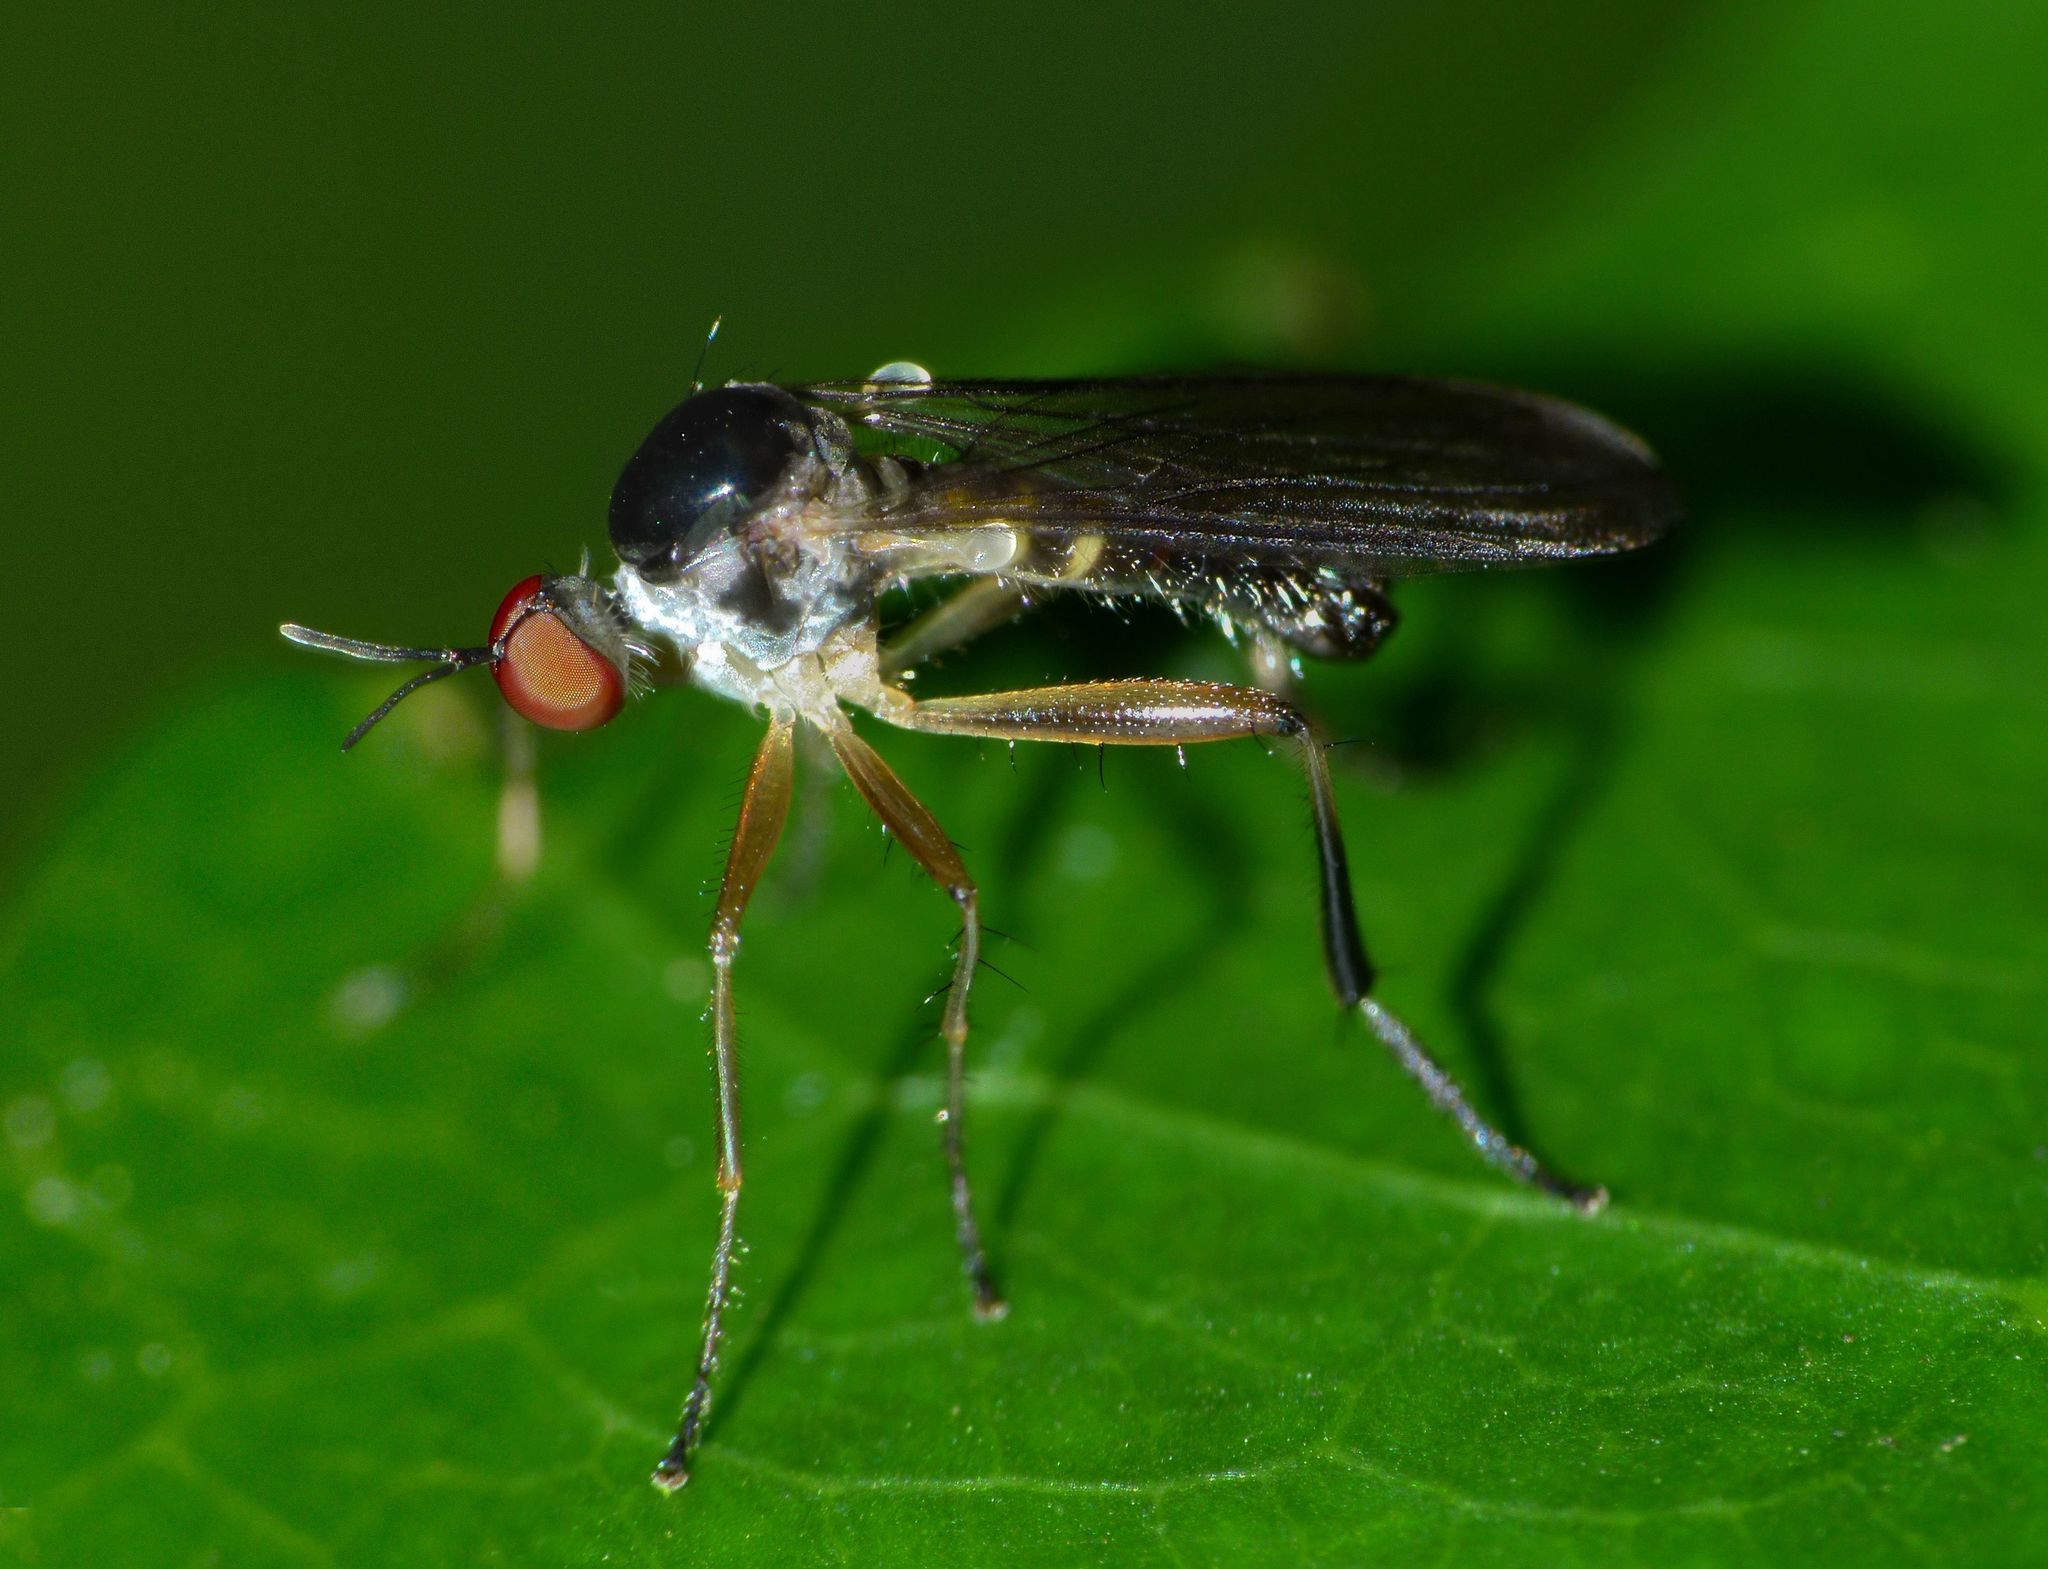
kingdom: Animalia
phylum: Arthropoda
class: Insecta
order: Diptera
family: Hybotidae
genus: Oropezella
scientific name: Oropezella tanycera
